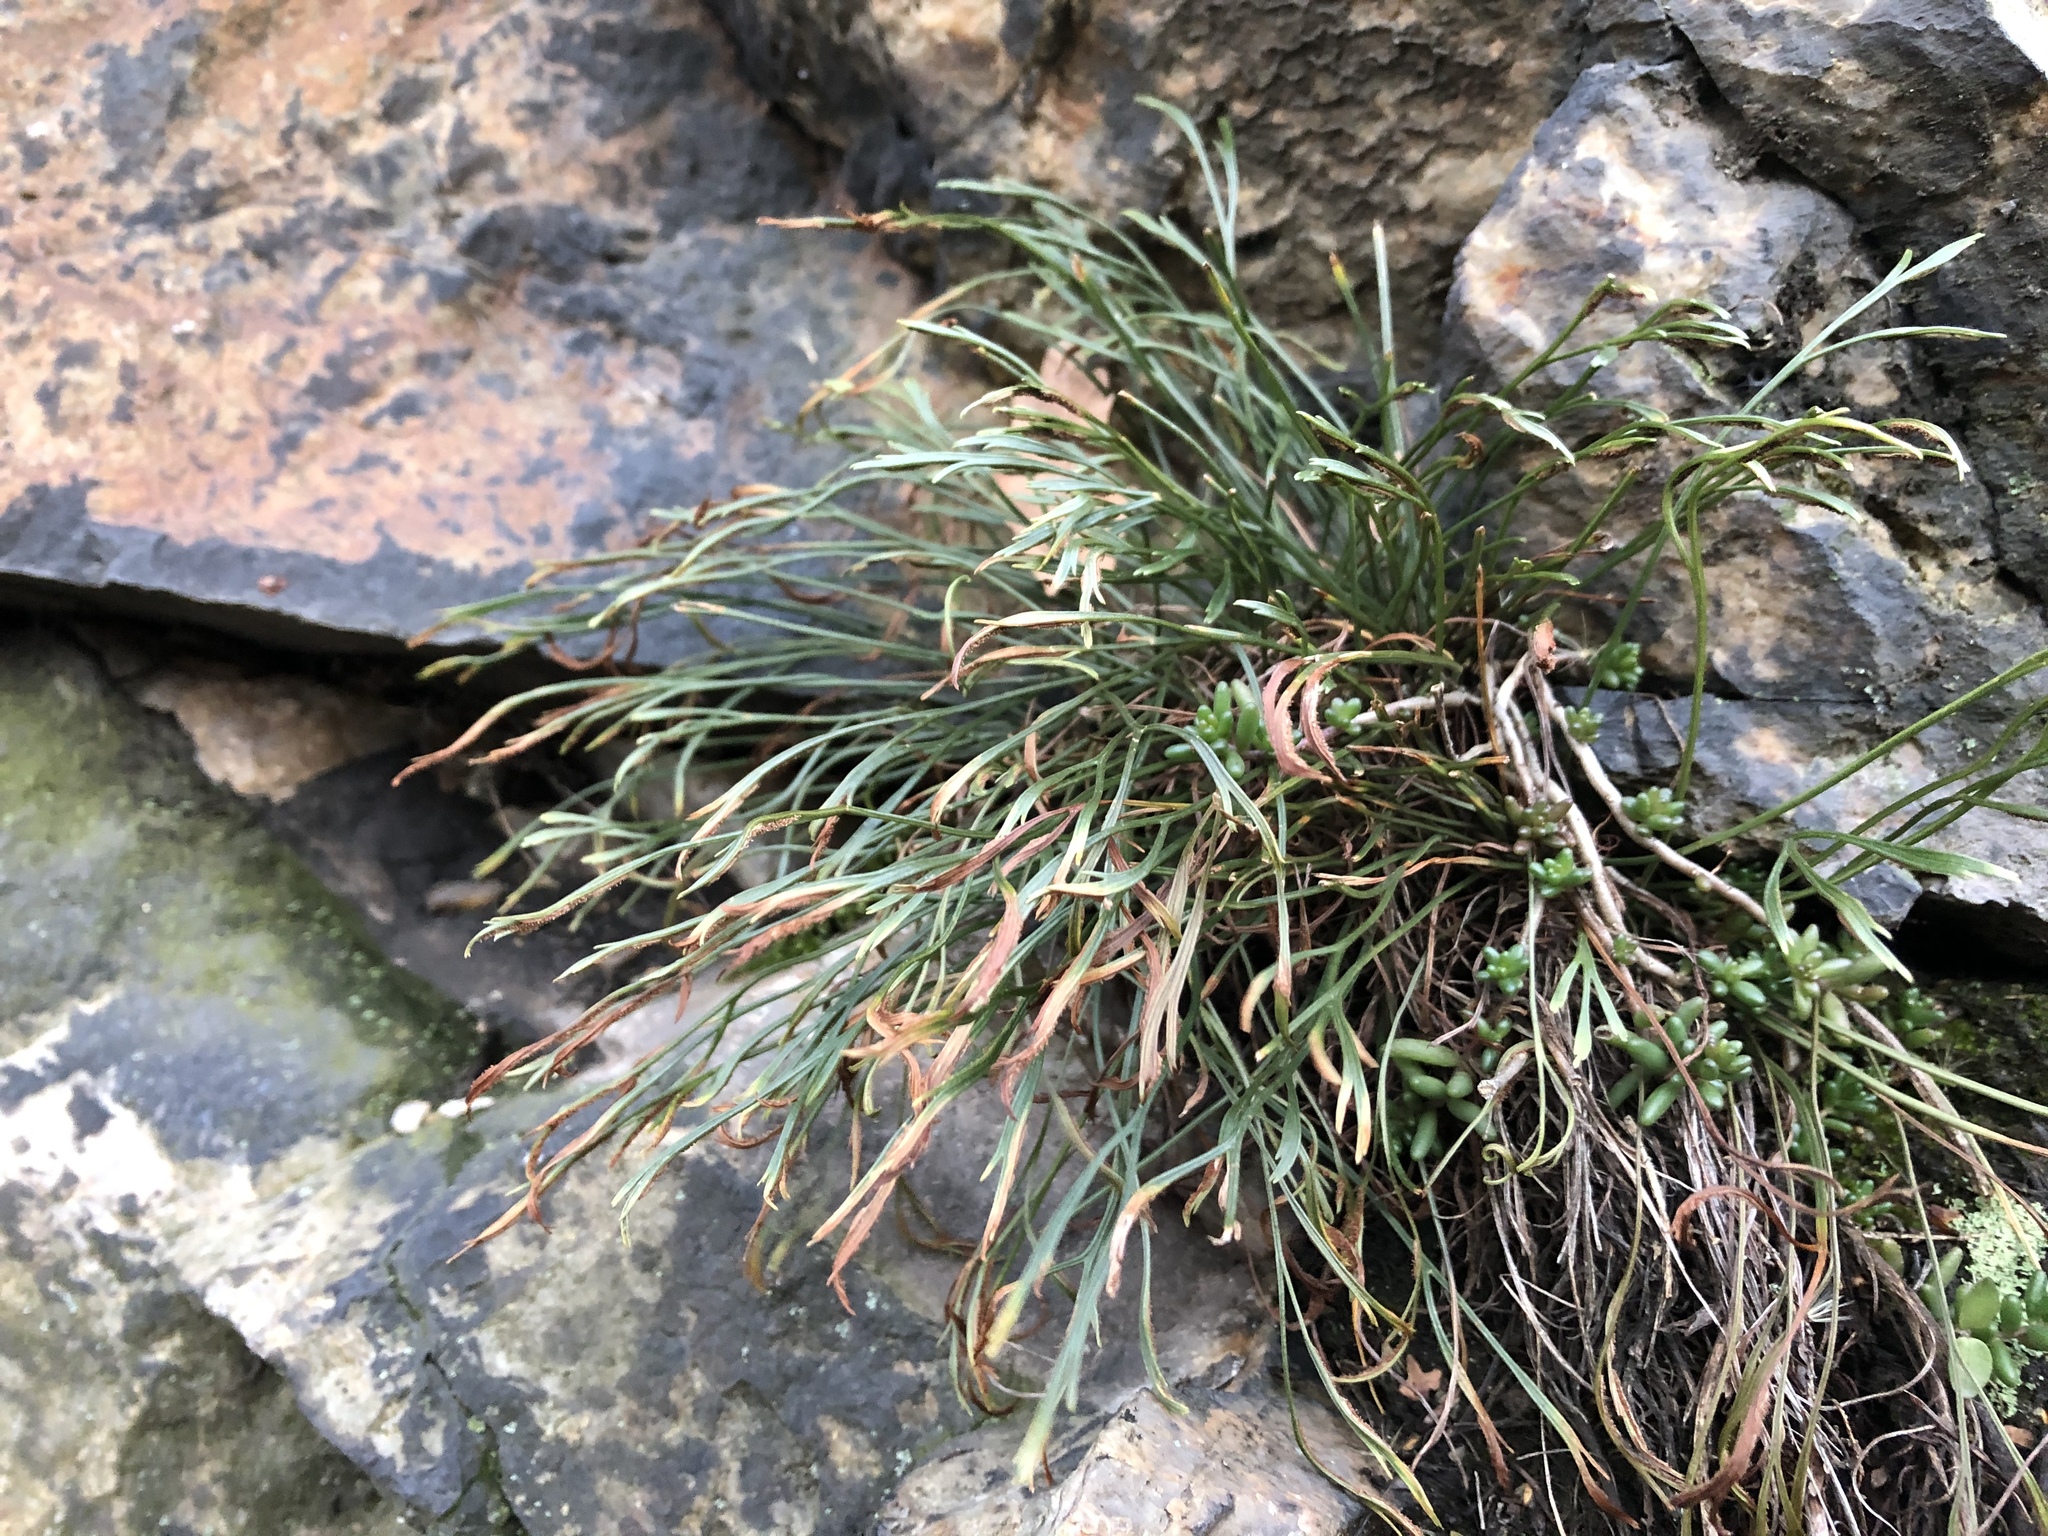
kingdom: Plantae
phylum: Tracheophyta
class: Polypodiopsida
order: Polypodiales
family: Aspleniaceae
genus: Asplenium
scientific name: Asplenium septentrionale
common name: Forked spleenwort
